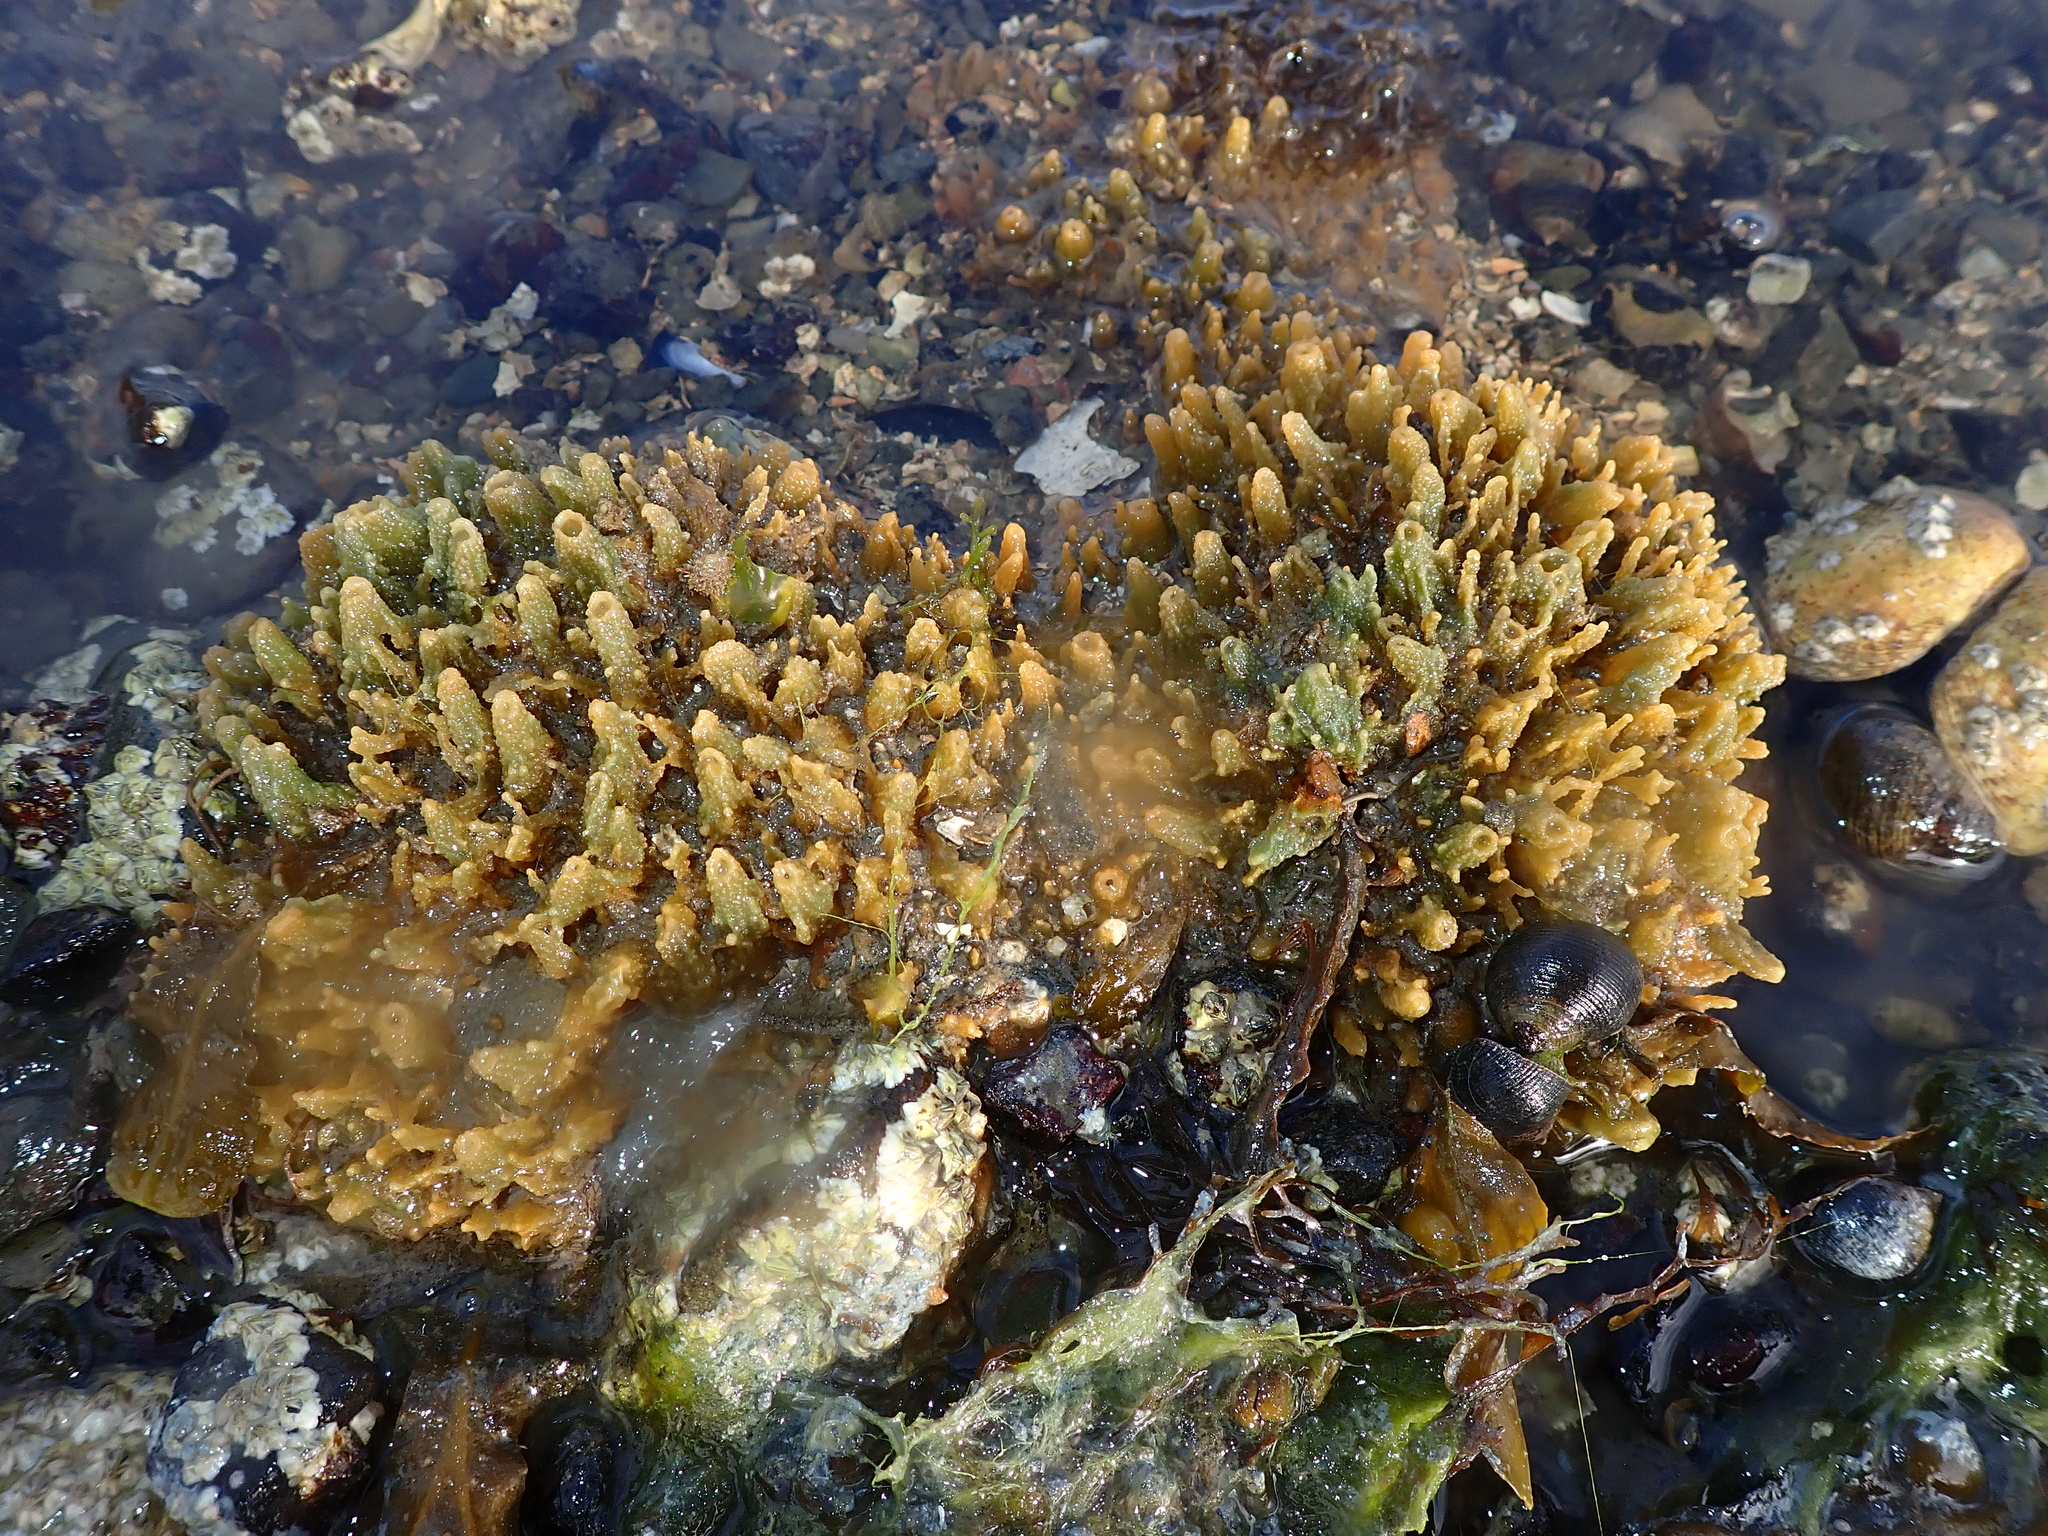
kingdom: Animalia
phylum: Porifera
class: Demospongiae
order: Suberitida
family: Halichondriidae
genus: Hymeniacidon
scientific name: Hymeniacidon perlevis
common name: Crumb-of-bread sponge
